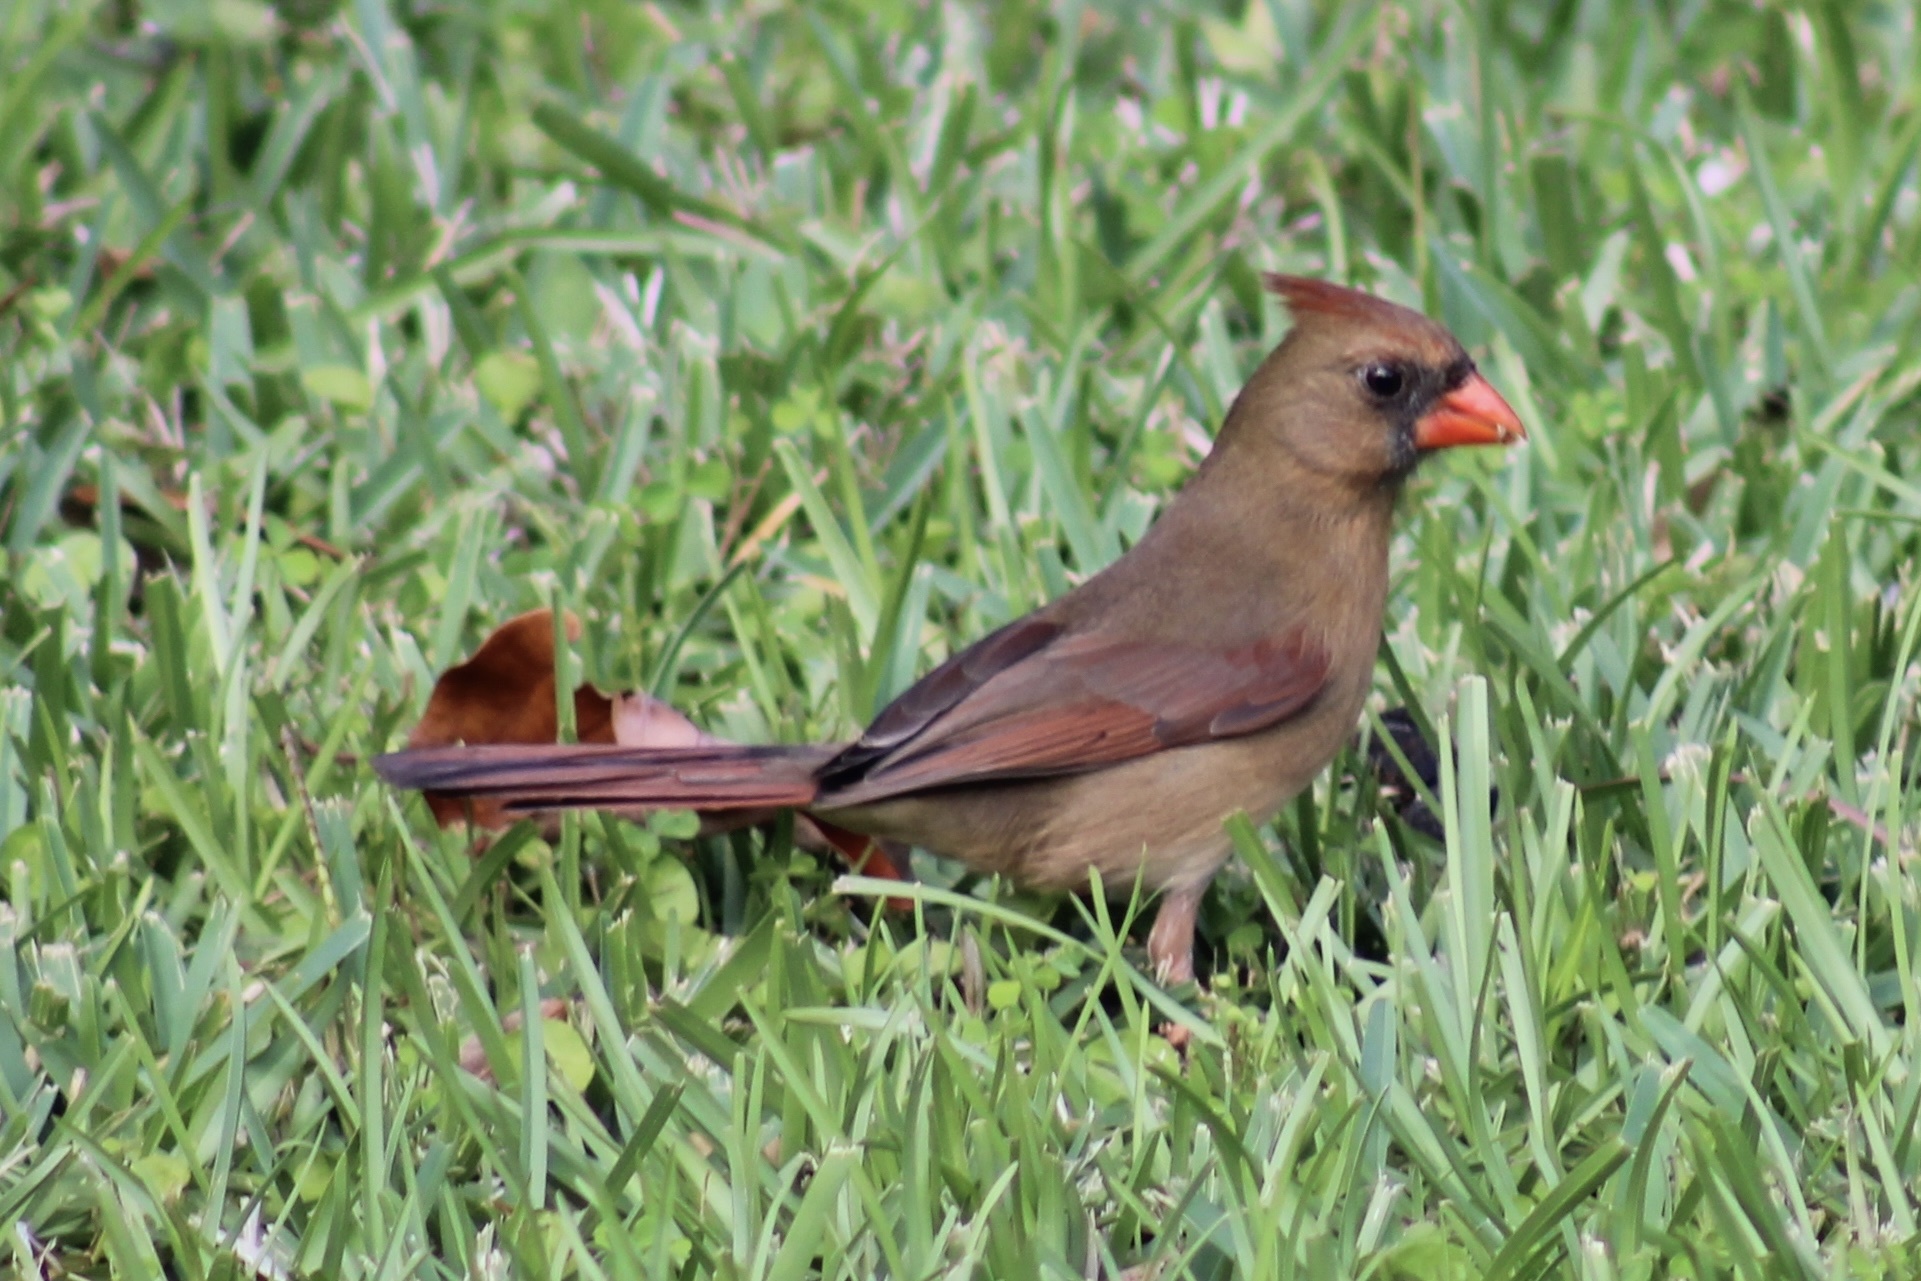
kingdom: Animalia
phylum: Chordata
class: Aves
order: Passeriformes
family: Cardinalidae
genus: Cardinalis
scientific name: Cardinalis cardinalis
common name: Northern cardinal
